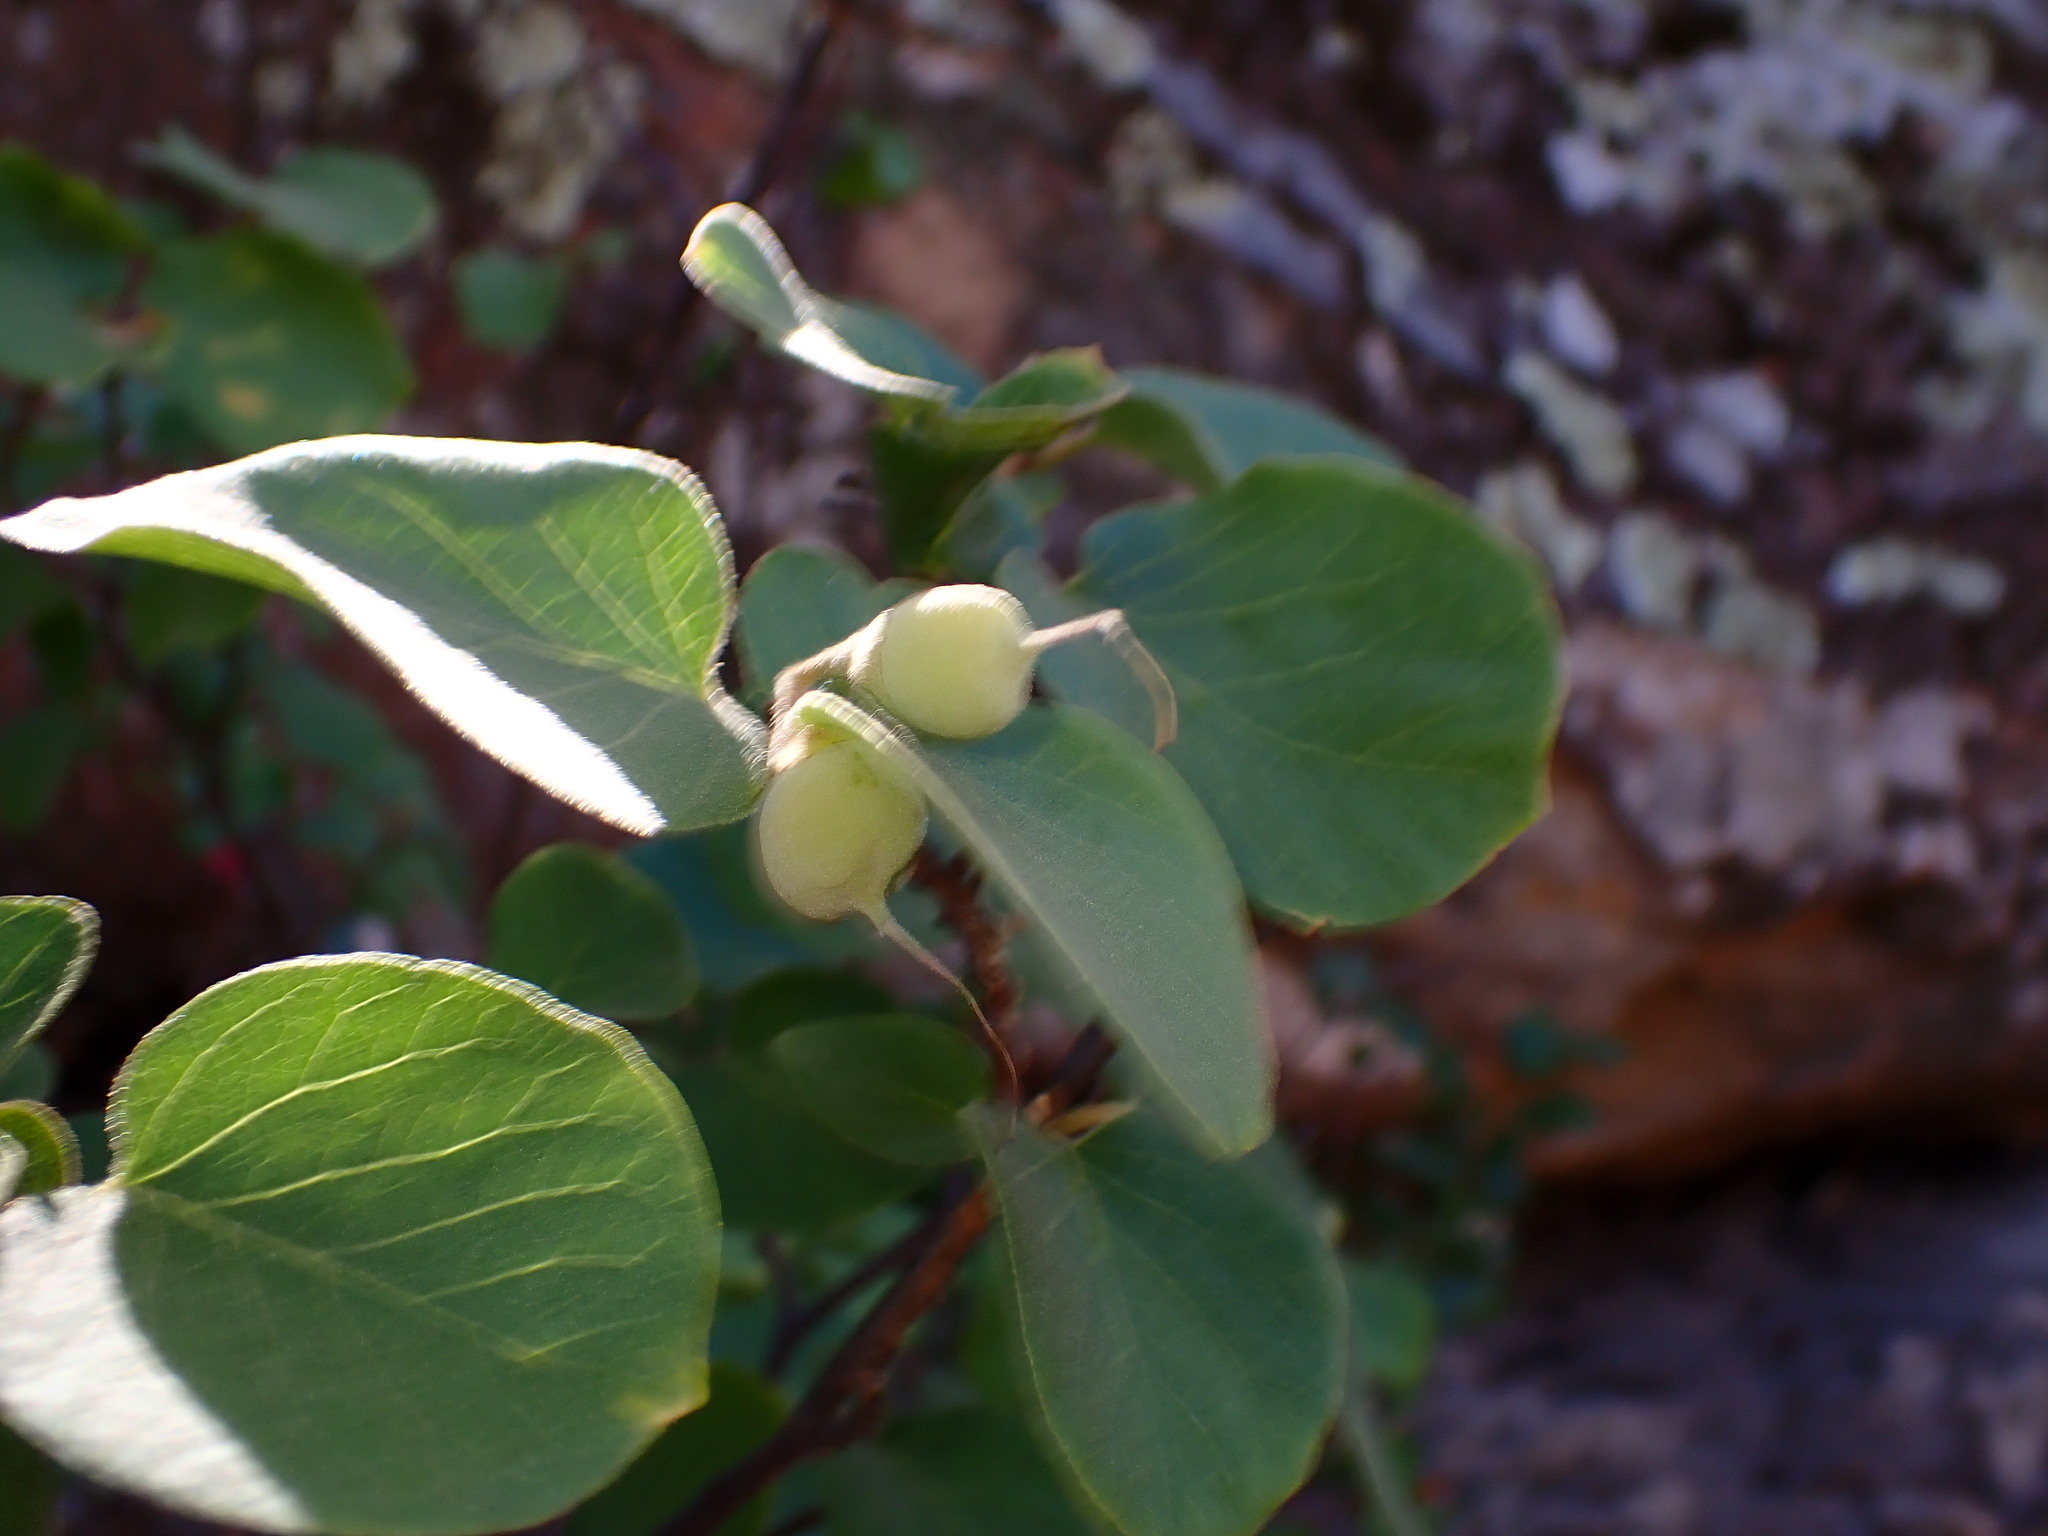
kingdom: Plantae
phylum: Tracheophyta
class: Magnoliopsida
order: Ericales
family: Styracaceae
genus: Styrax
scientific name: Styrax redivivus
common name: California styrax
